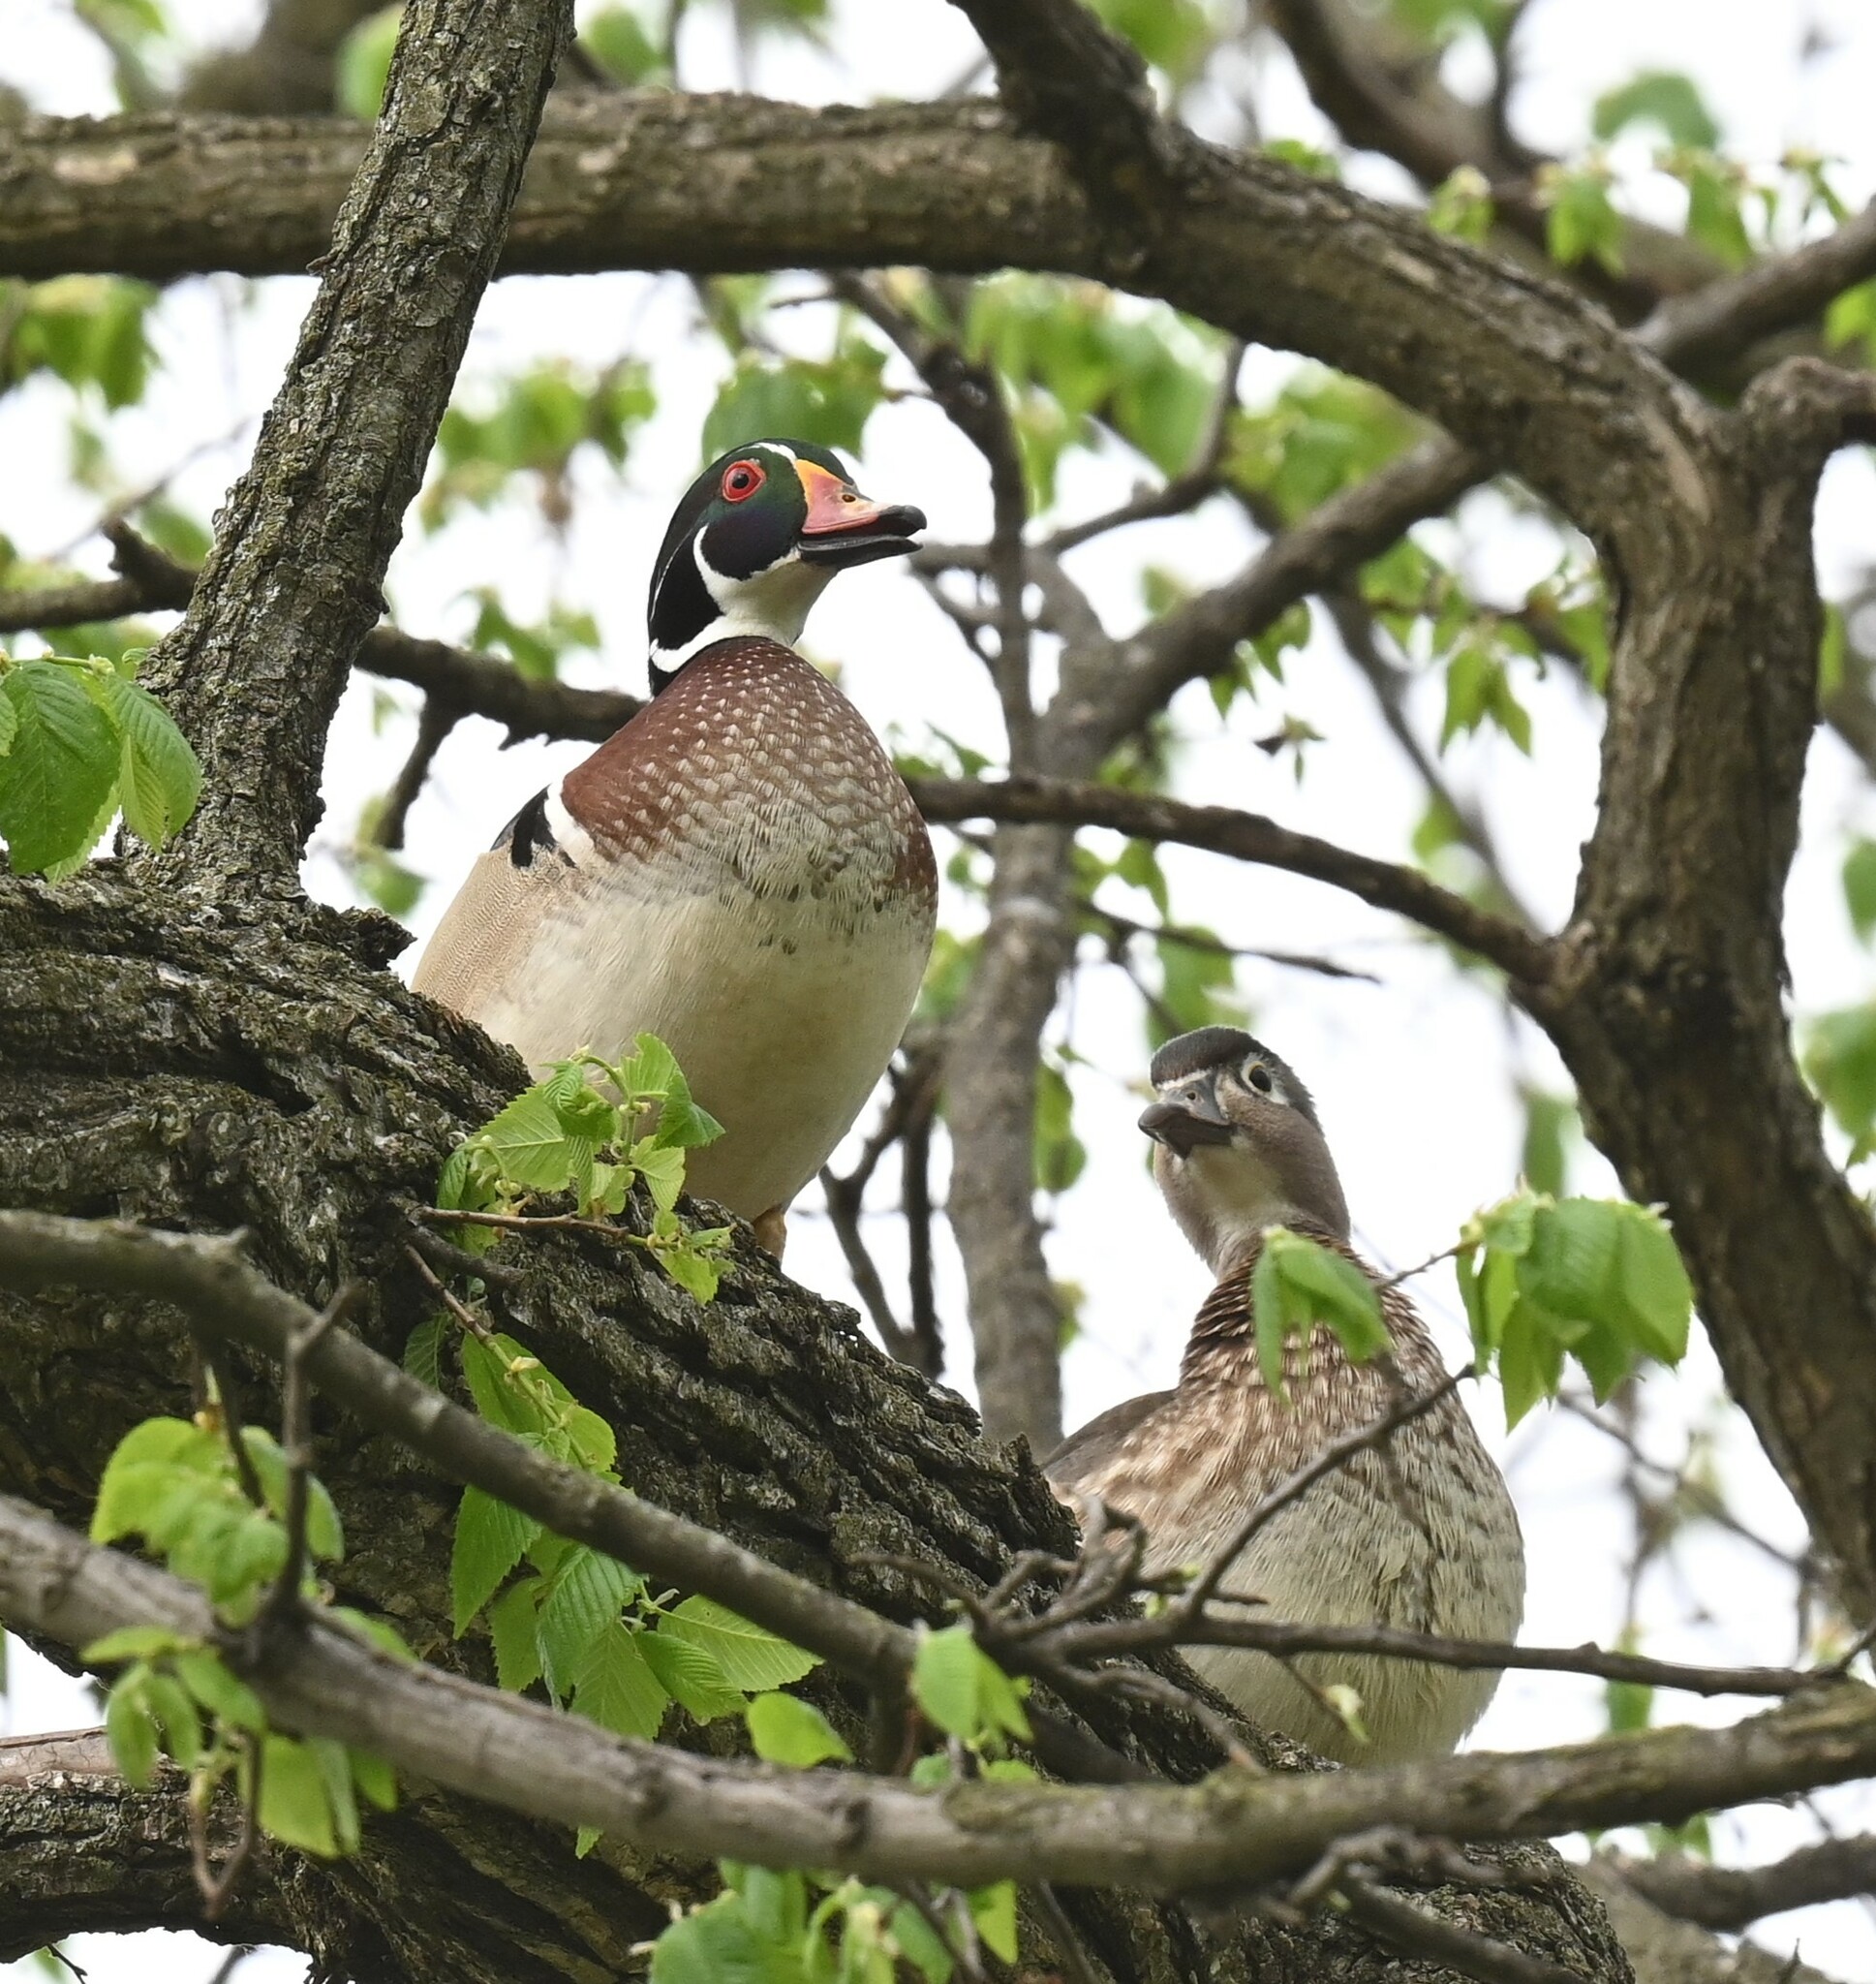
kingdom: Animalia
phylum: Chordata
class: Aves
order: Anseriformes
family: Anatidae
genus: Aix
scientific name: Aix sponsa
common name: Wood duck
